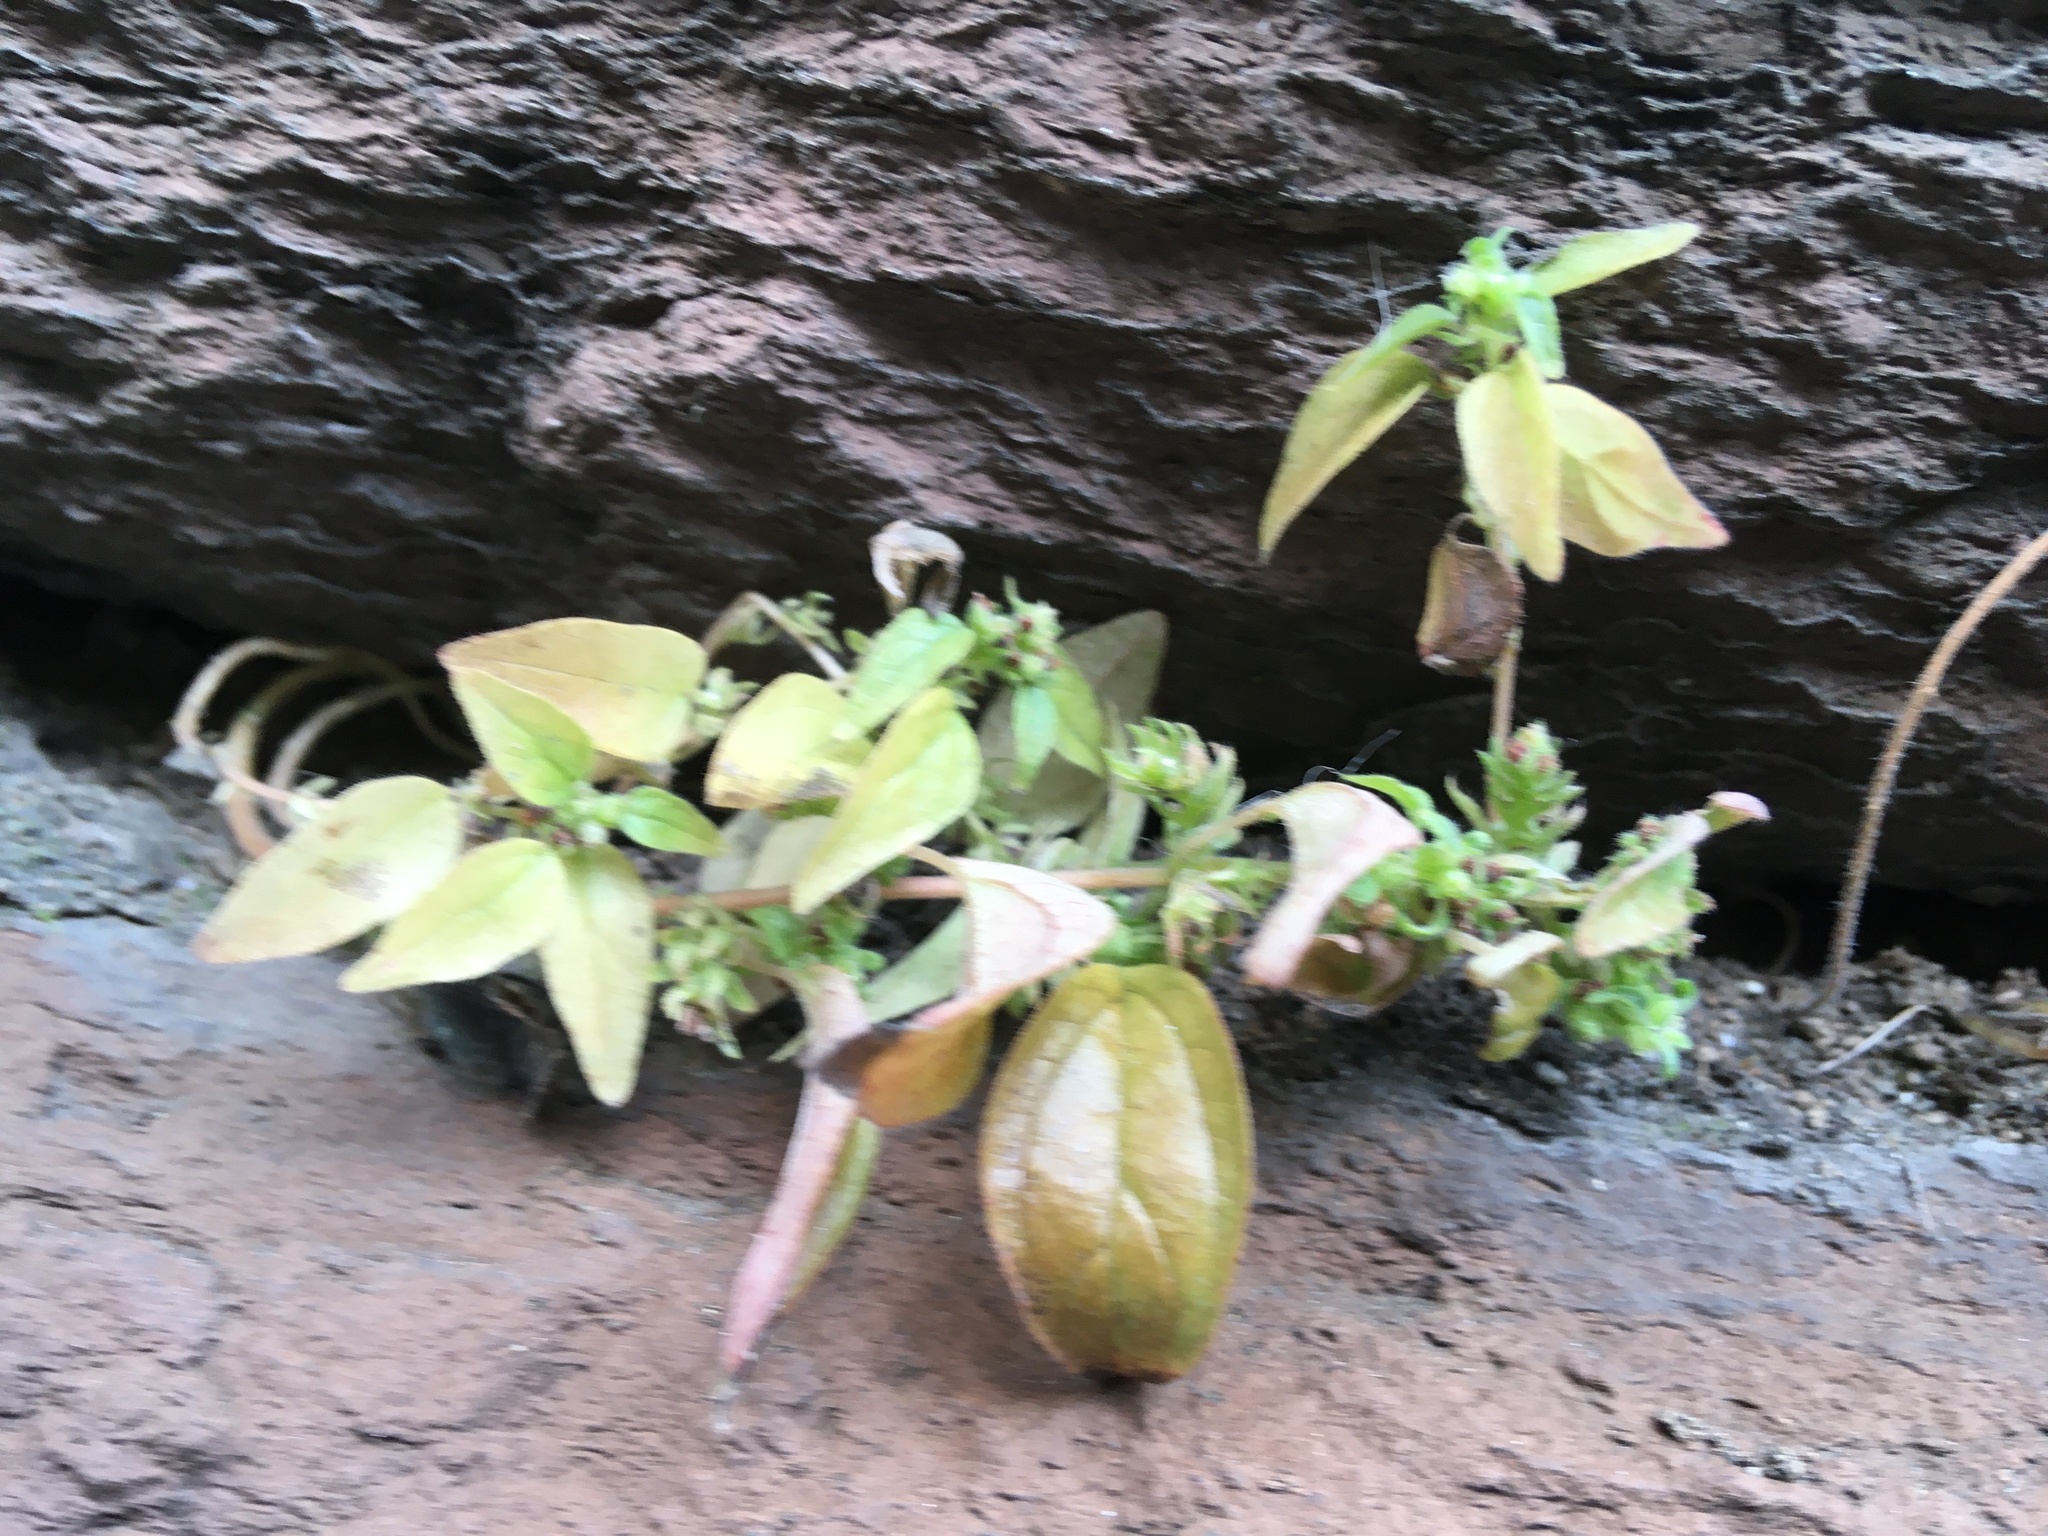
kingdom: Plantae
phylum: Tracheophyta
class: Magnoliopsida
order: Rosales
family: Urticaceae
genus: Parietaria
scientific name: Parietaria pensylvanica
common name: Pennsylvania pellitory
